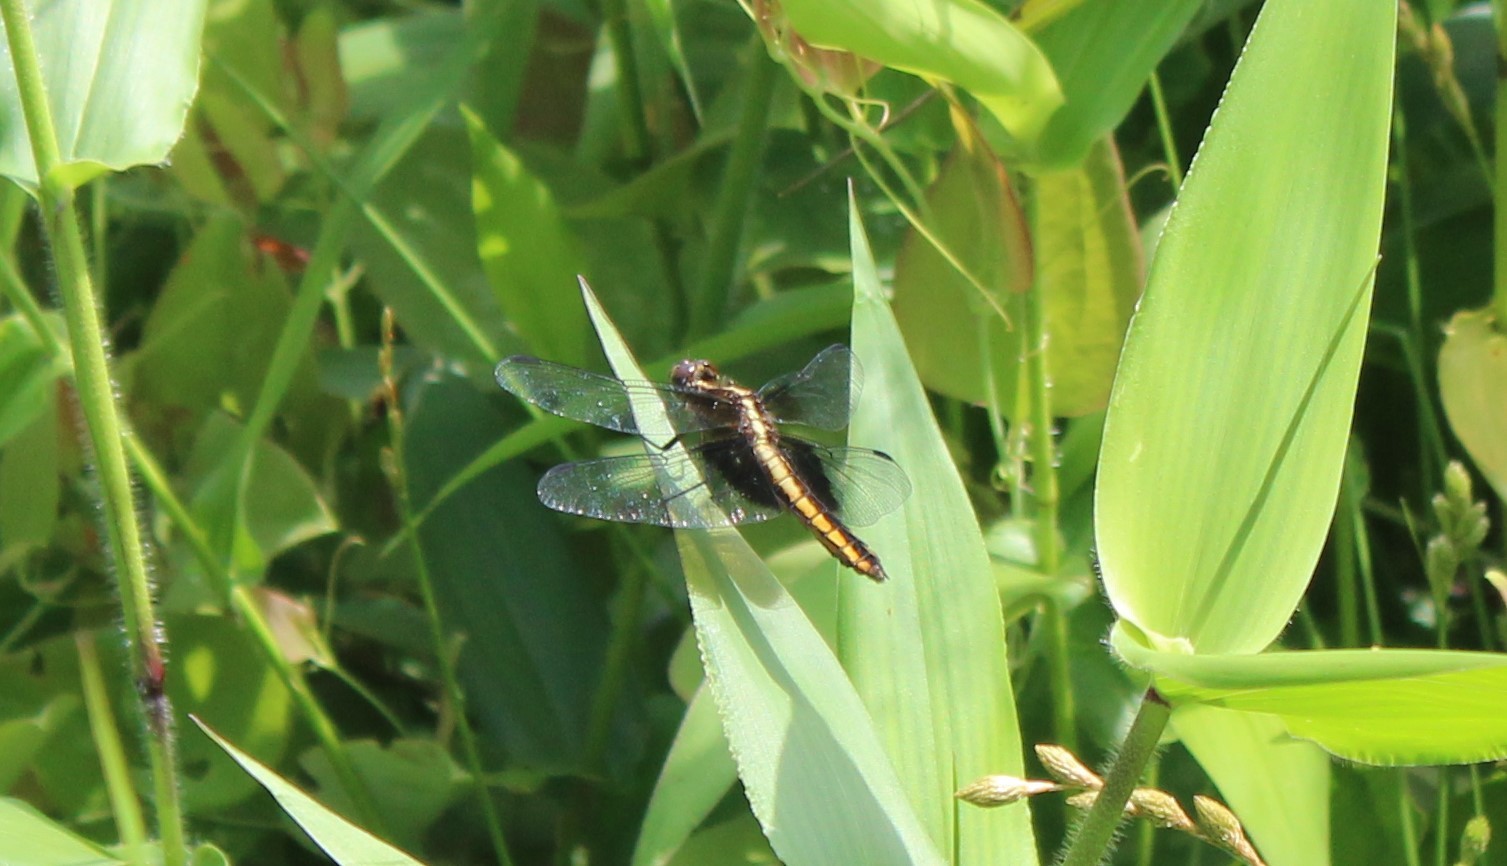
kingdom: Animalia
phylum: Arthropoda
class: Insecta
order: Odonata
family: Libellulidae
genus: Libellula
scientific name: Libellula luctuosa
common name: Widow skimmer
